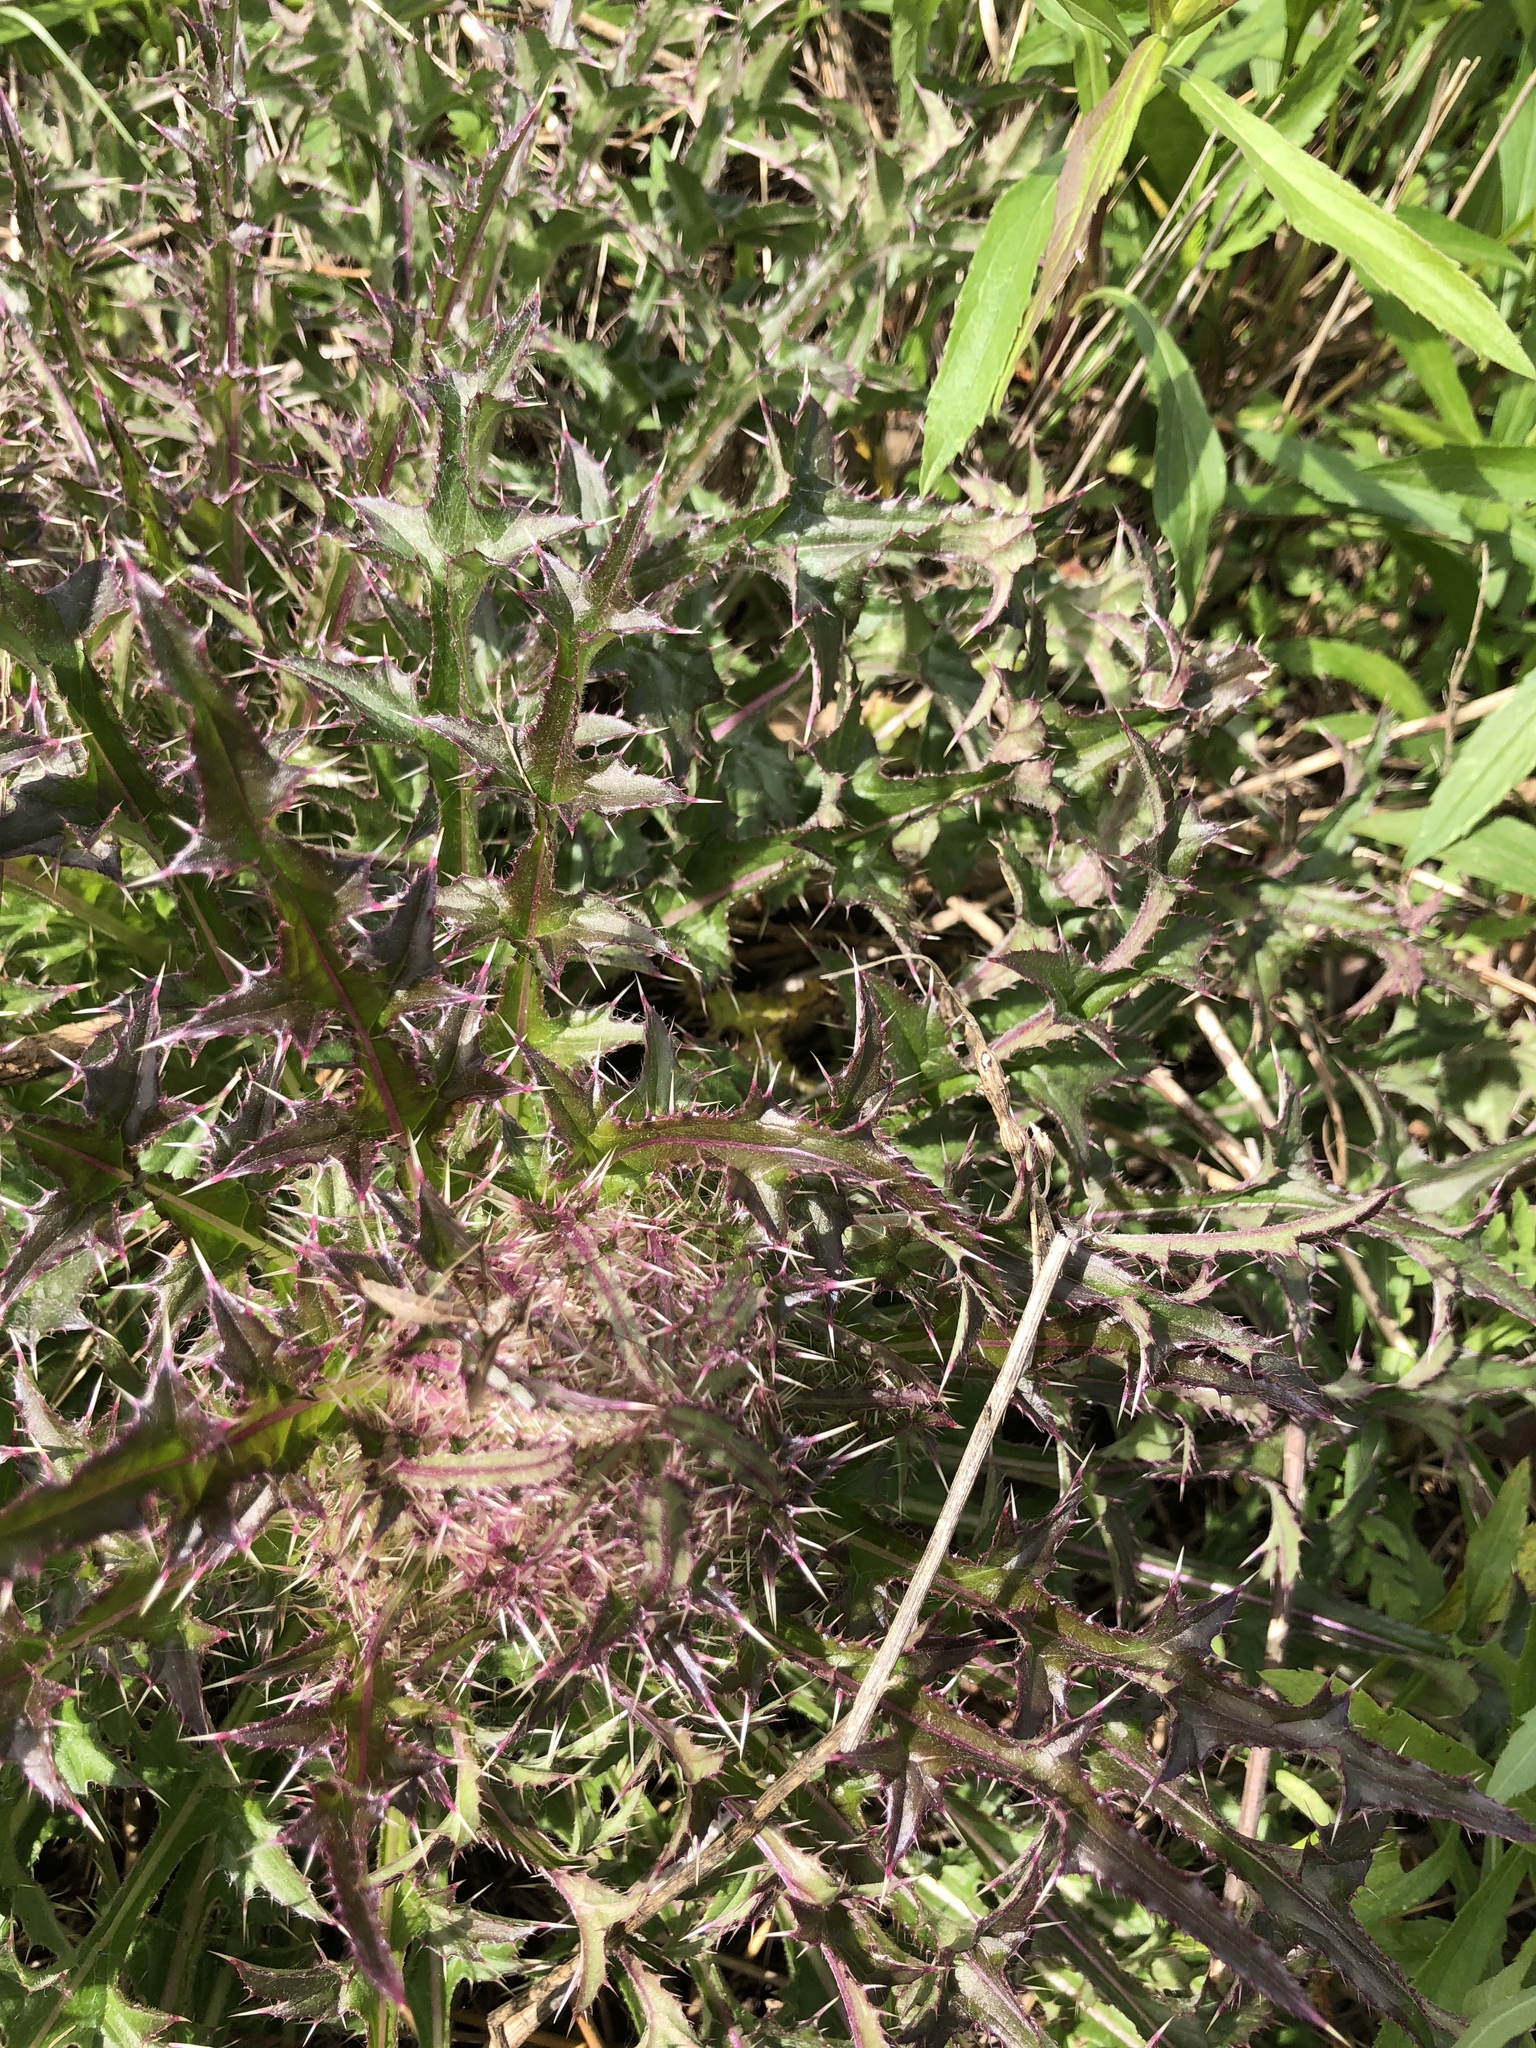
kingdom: Plantae
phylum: Tracheophyta
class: Magnoliopsida
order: Asterales
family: Asteraceae
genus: Cirsium
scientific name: Cirsium horridulum
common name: Bristly thistle
